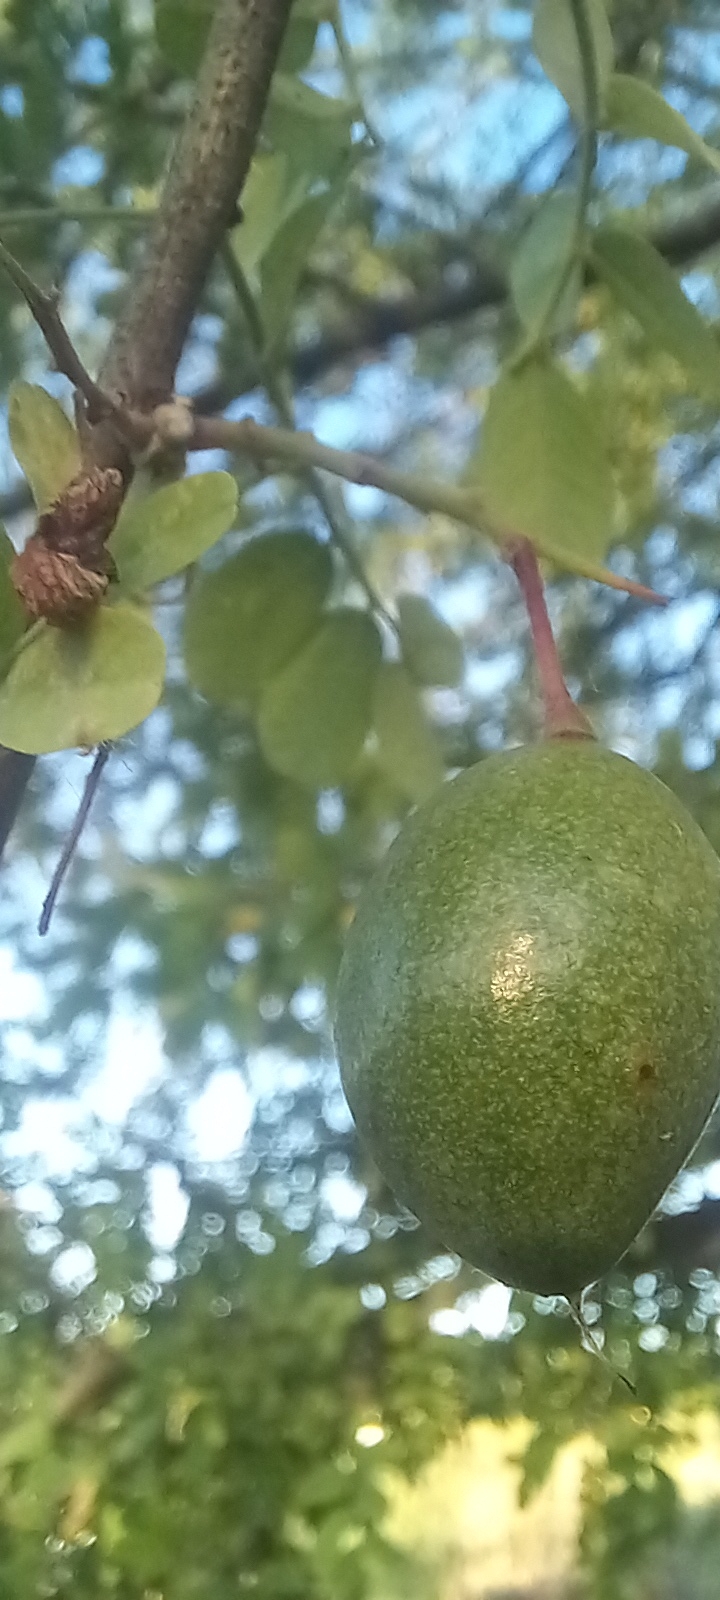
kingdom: Plantae
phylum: Tracheophyta
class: Magnoliopsida
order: Fabales
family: Fabaceae
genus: Geoffroea
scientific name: Geoffroea decorticans
